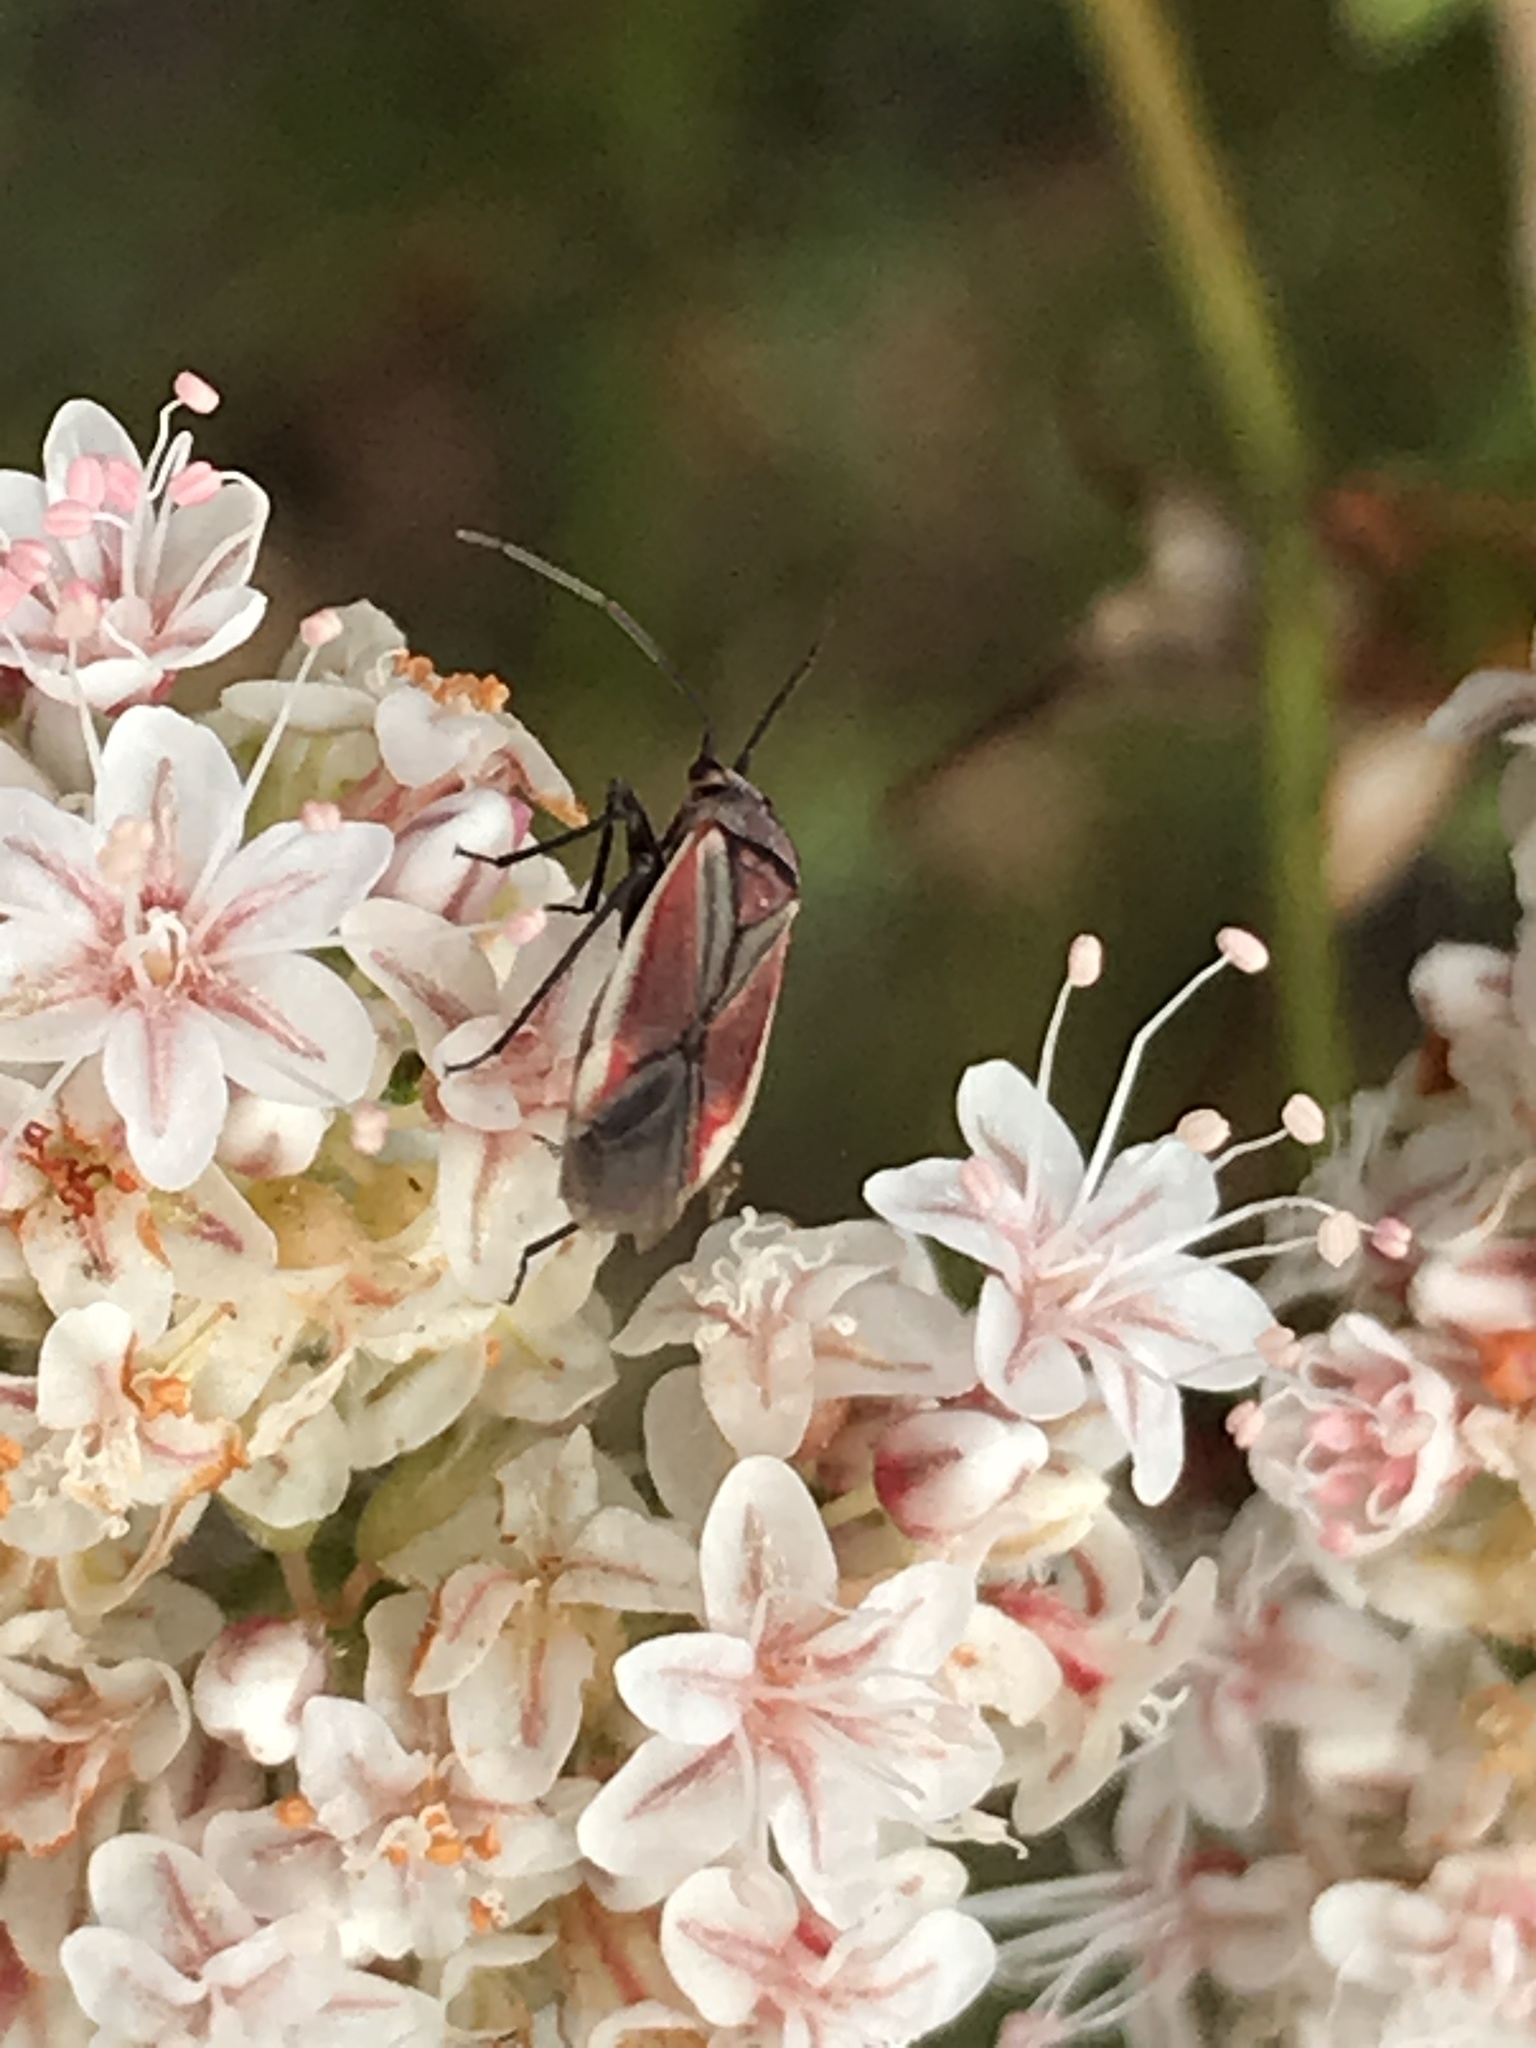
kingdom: Animalia
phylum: Arthropoda
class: Insecta
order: Hemiptera
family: Miridae
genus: Lopidea
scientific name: Lopidea marginata
